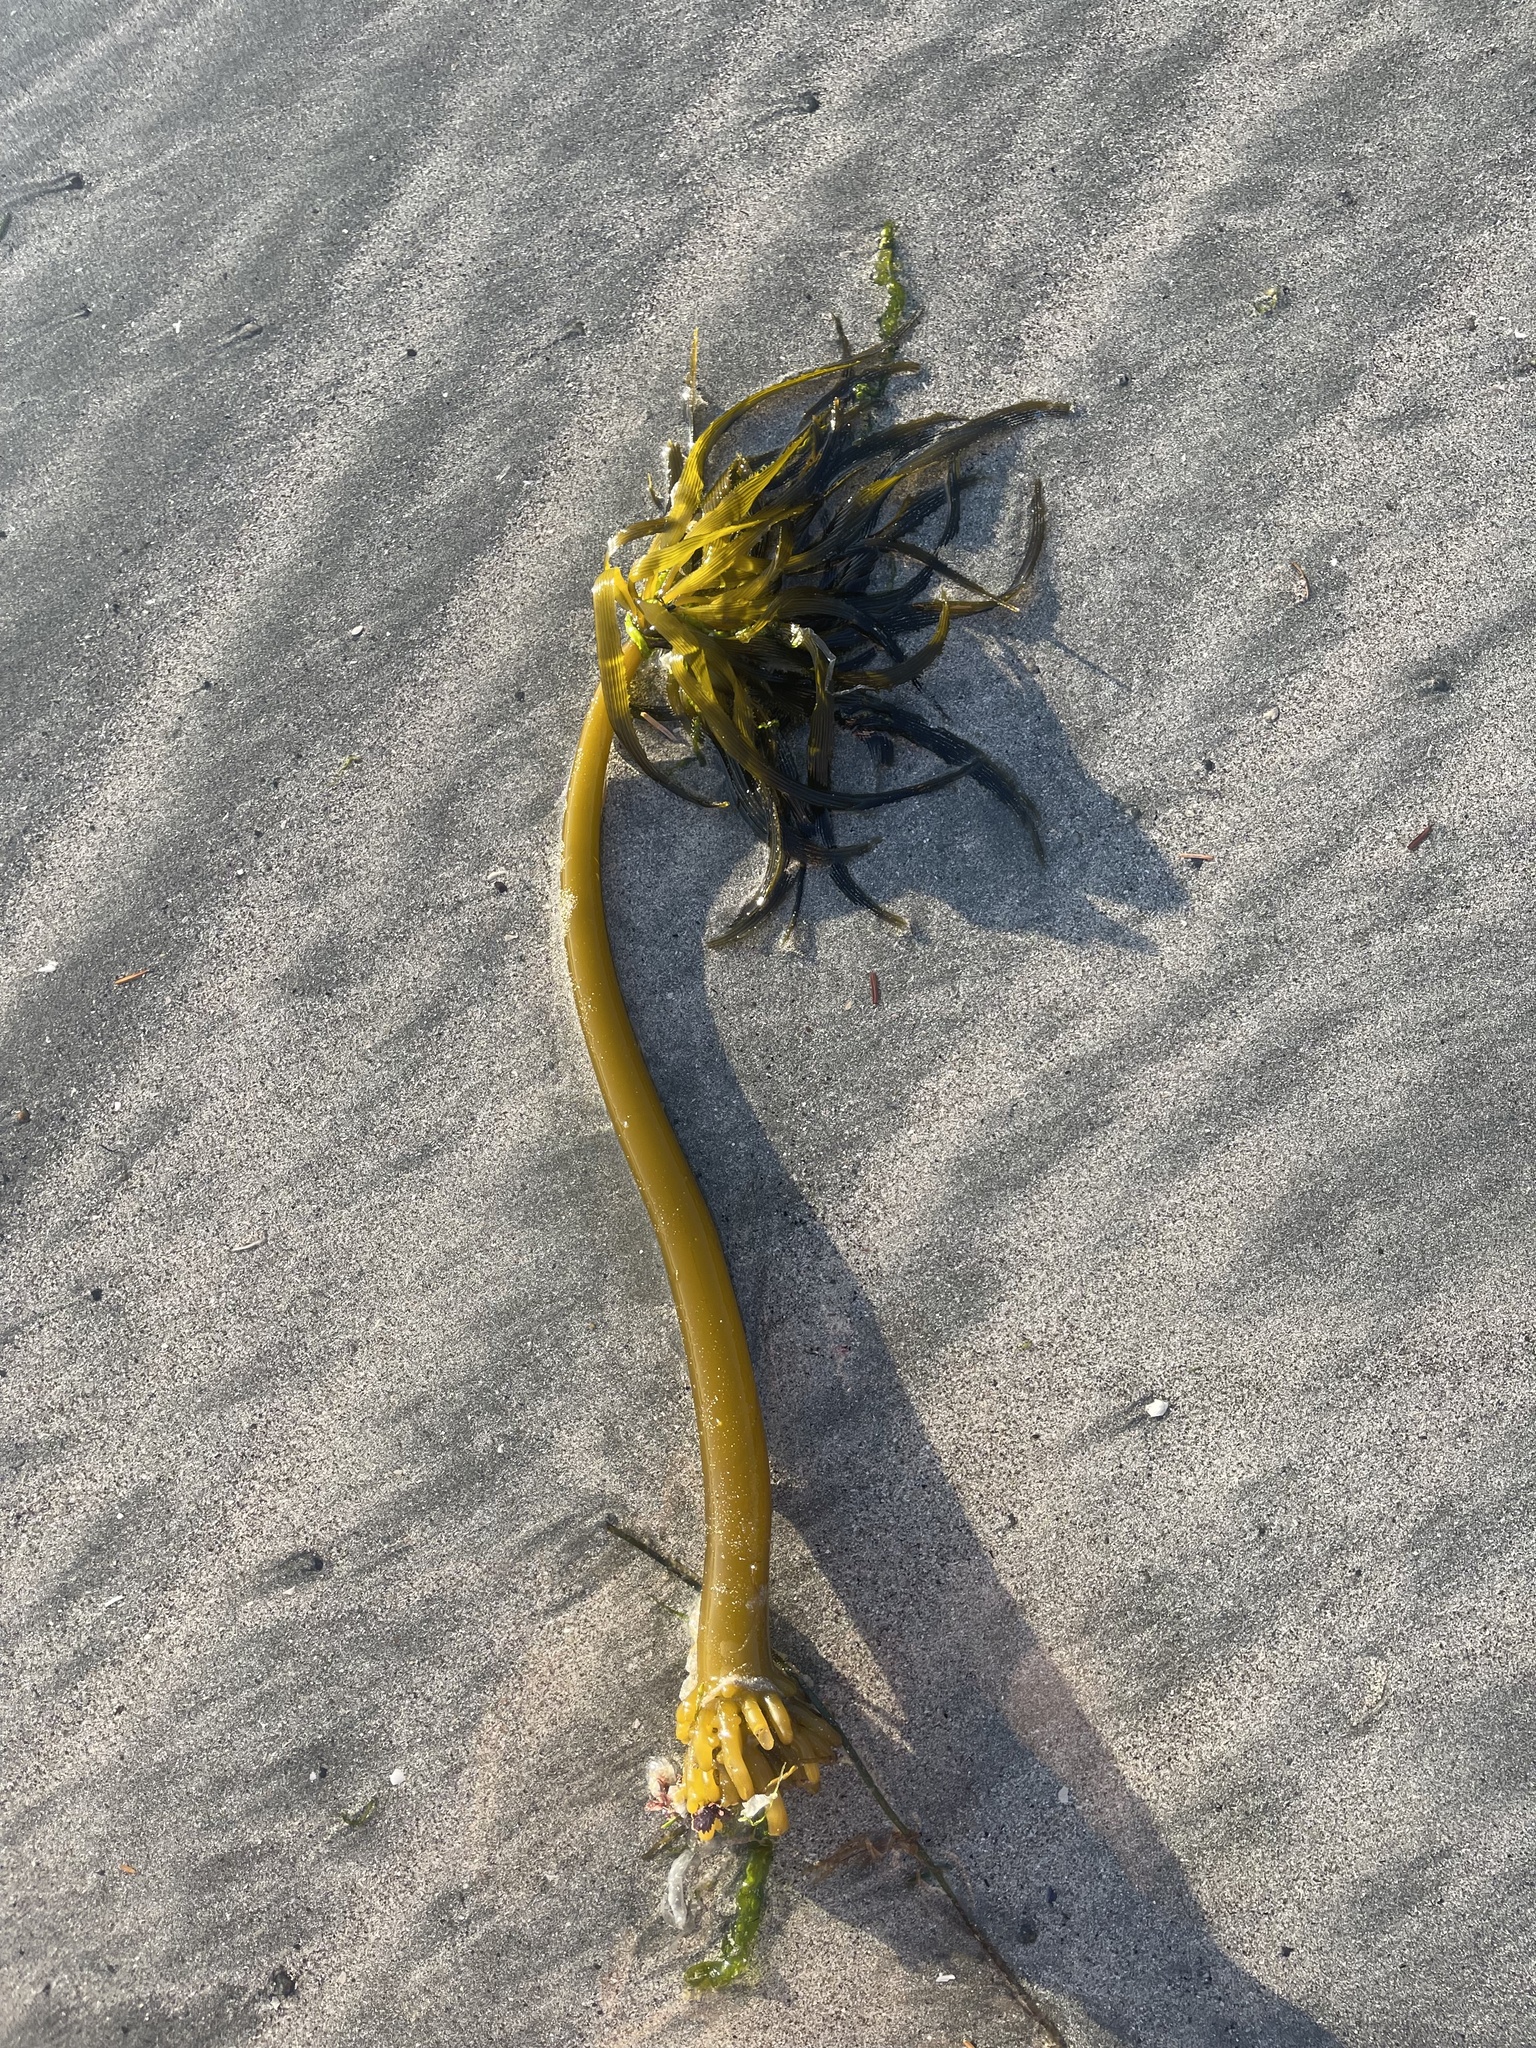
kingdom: Chromista
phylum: Ochrophyta
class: Phaeophyceae
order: Laminariales
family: Laminariaceae
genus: Postelsia
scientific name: Postelsia palmiformis
